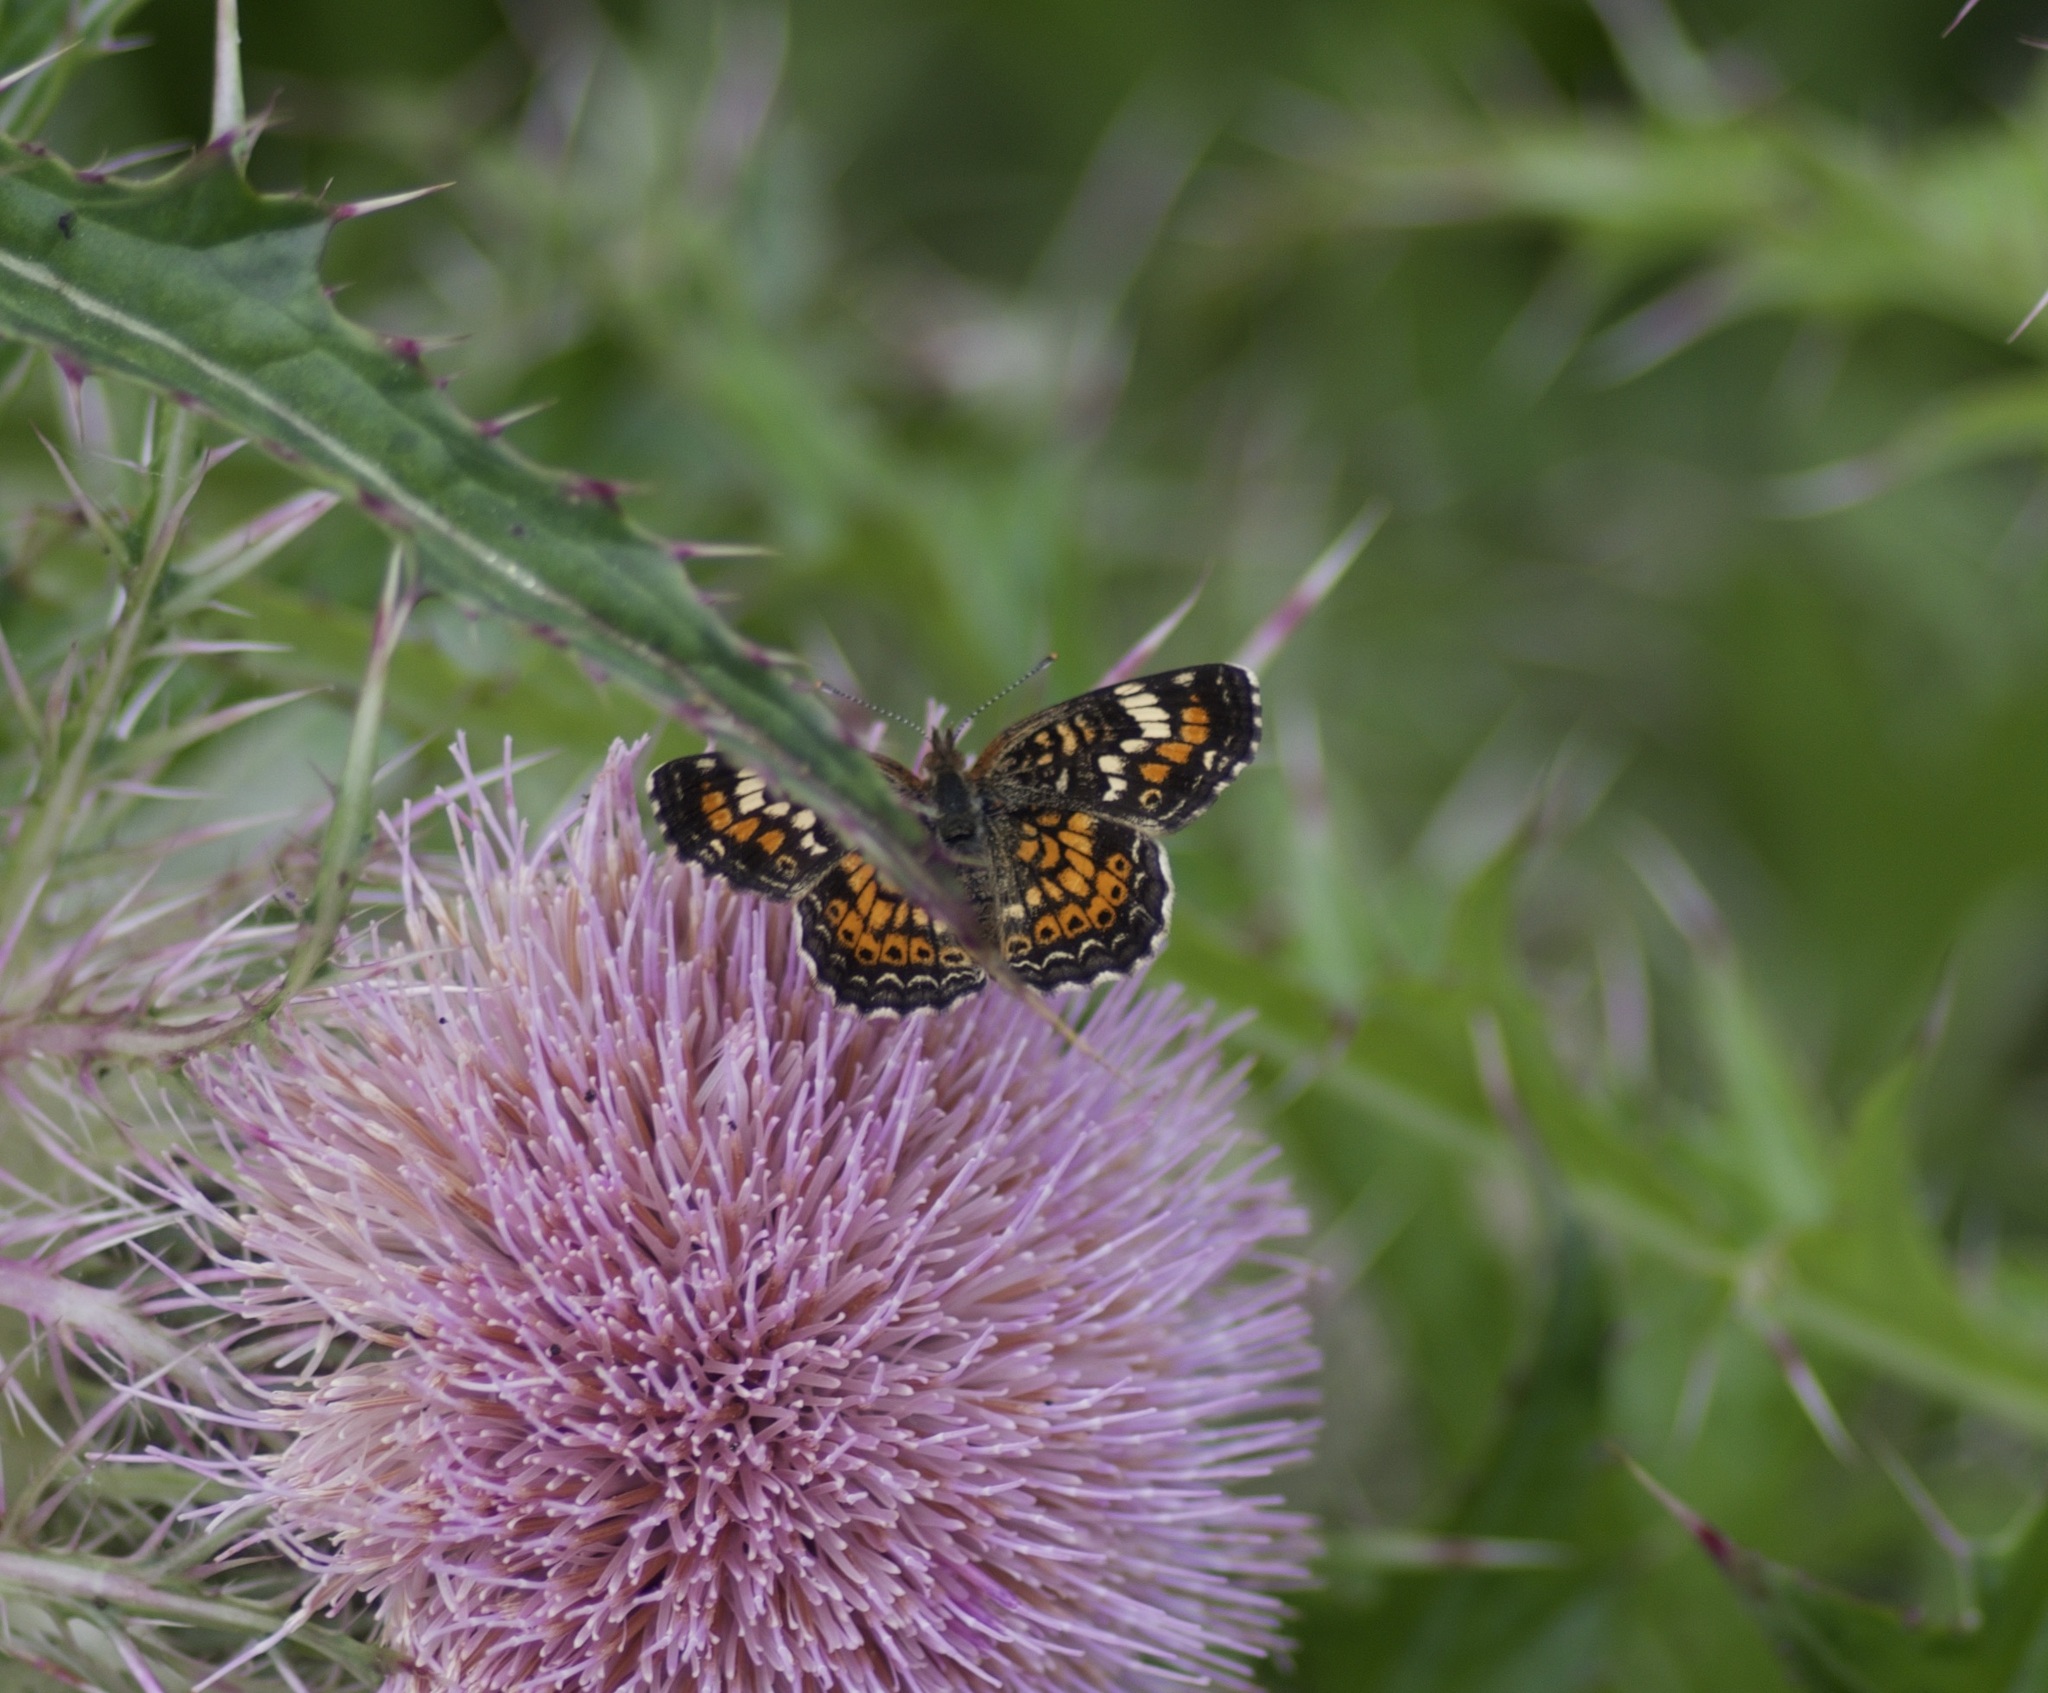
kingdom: Animalia
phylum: Arthropoda
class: Insecta
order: Lepidoptera
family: Nymphalidae
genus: Phyciodes
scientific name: Phyciodes phaon
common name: Phaon crescent
